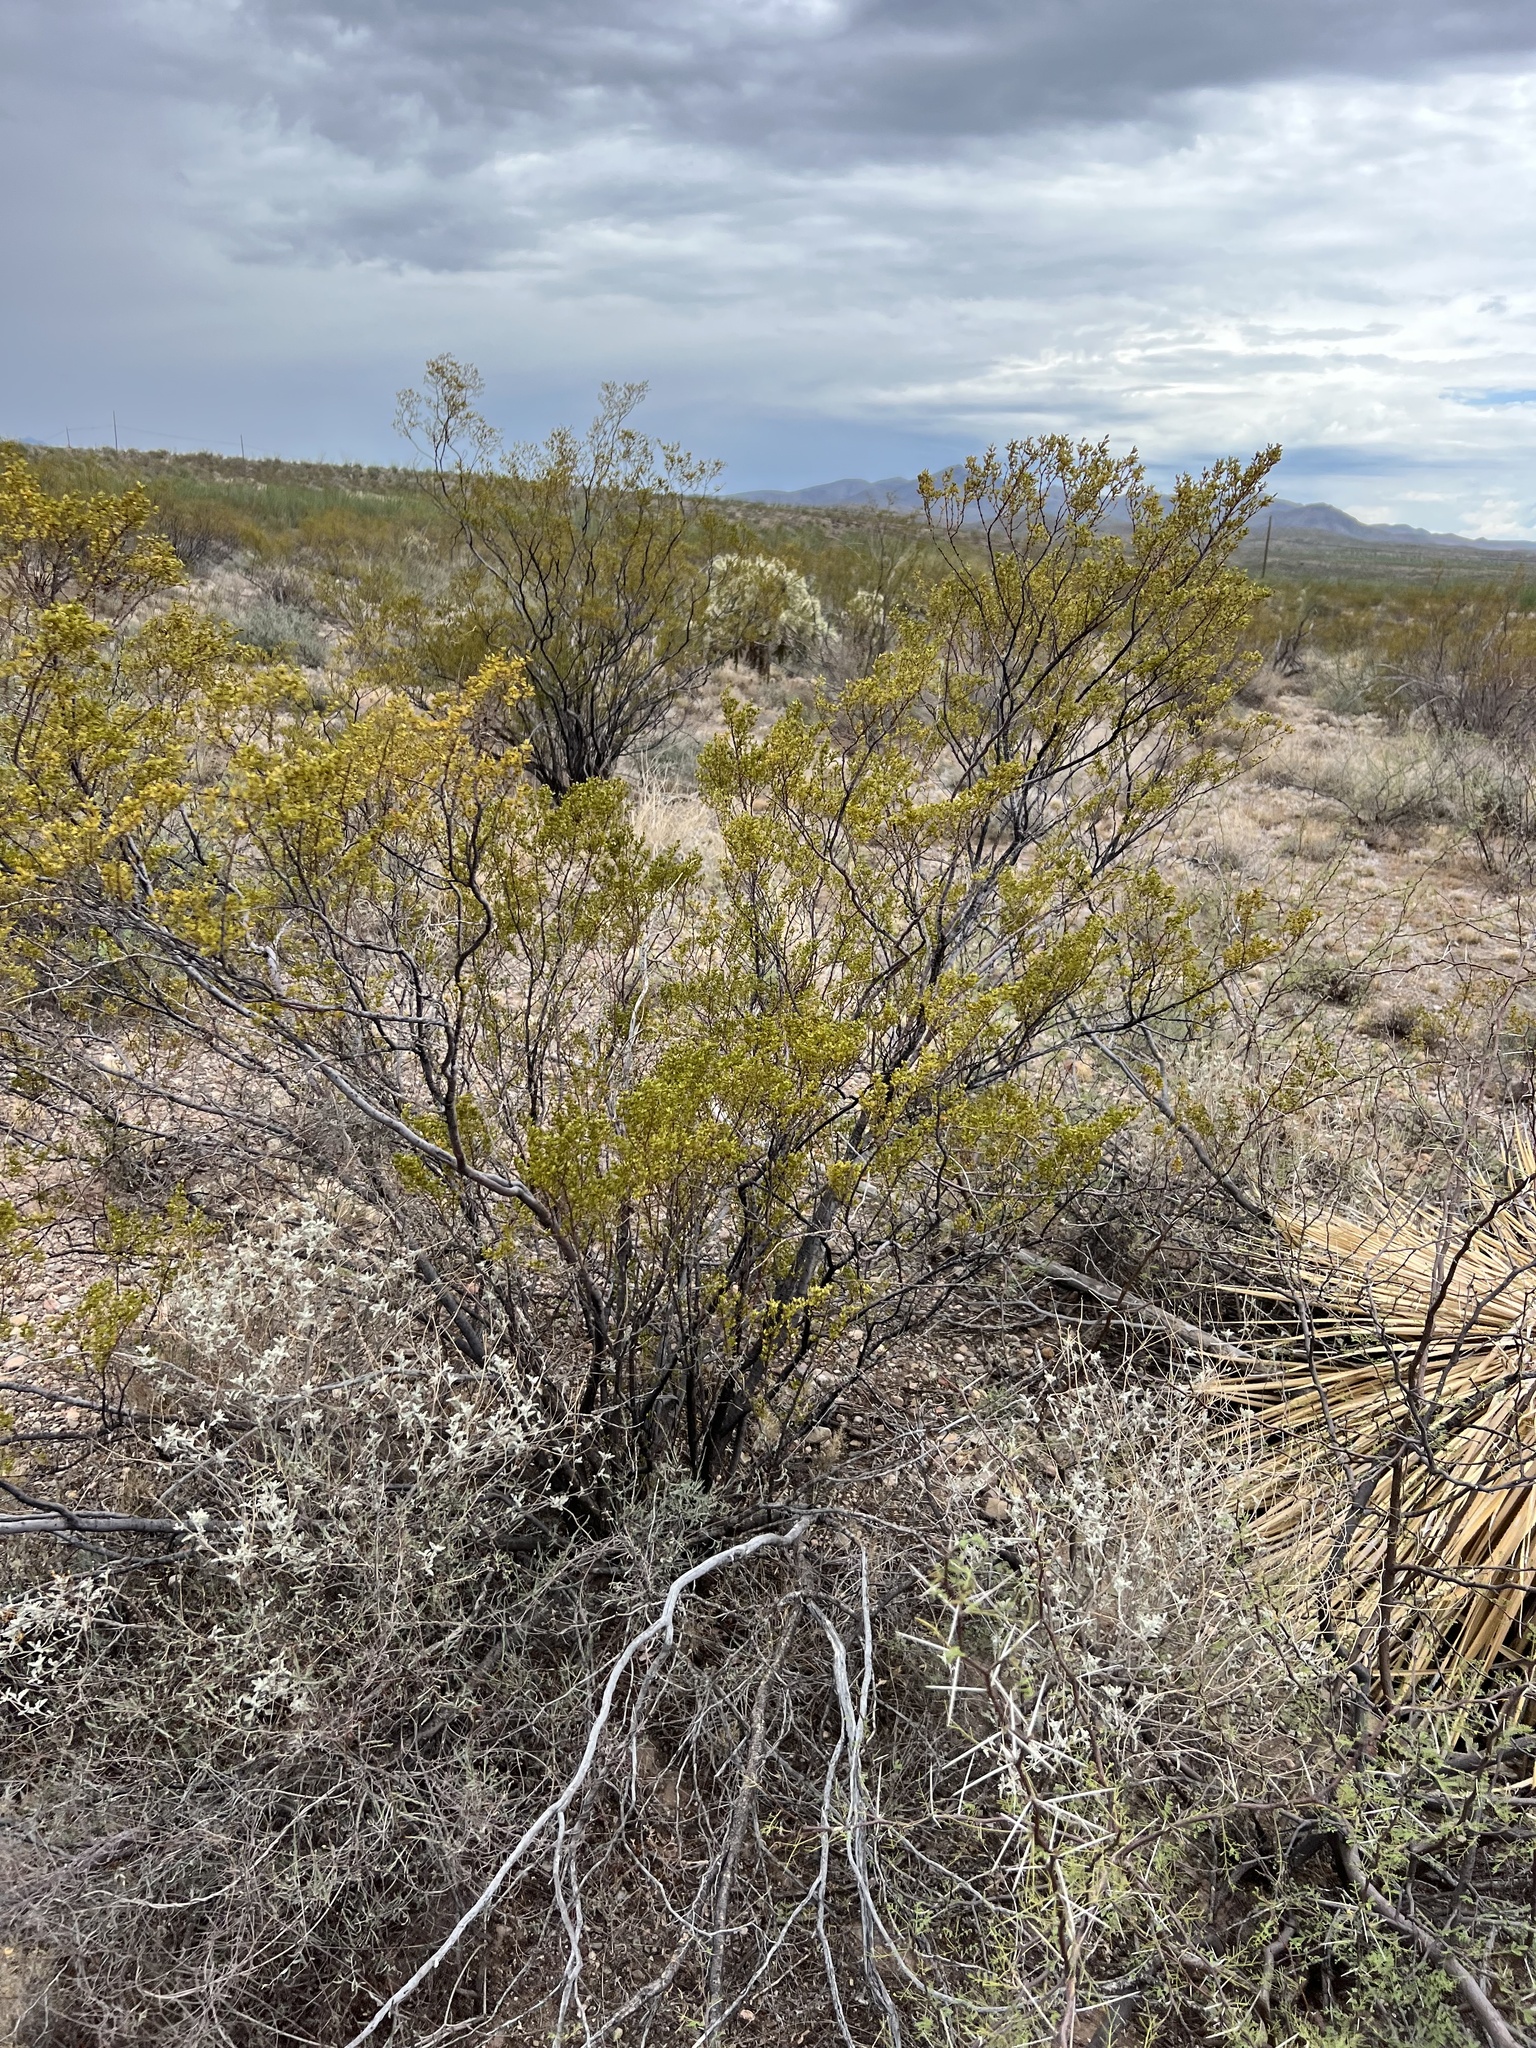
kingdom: Plantae
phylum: Tracheophyta
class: Magnoliopsida
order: Zygophyllales
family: Zygophyllaceae
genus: Larrea
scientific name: Larrea tridentata
